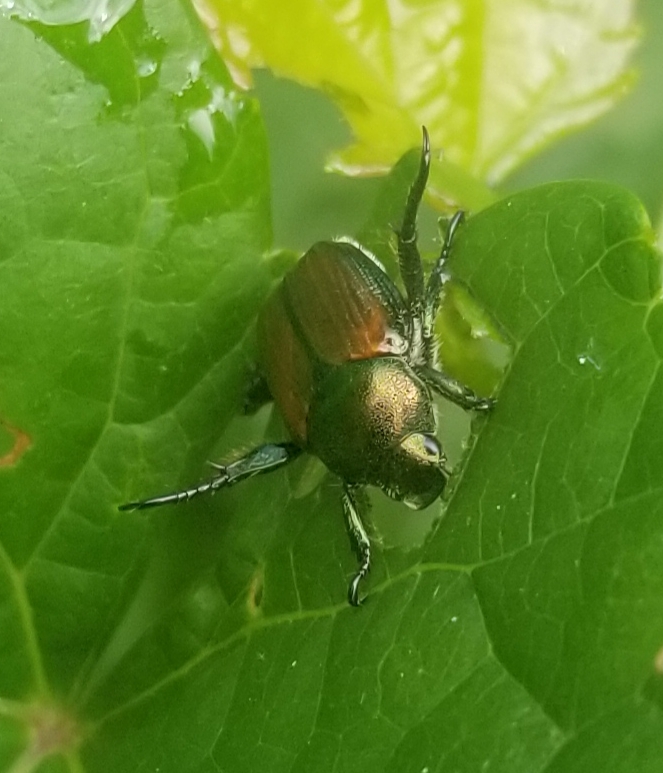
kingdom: Animalia
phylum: Arthropoda
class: Insecta
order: Coleoptera
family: Scarabaeidae
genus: Popillia
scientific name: Popillia japonica
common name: Japanese beetle
